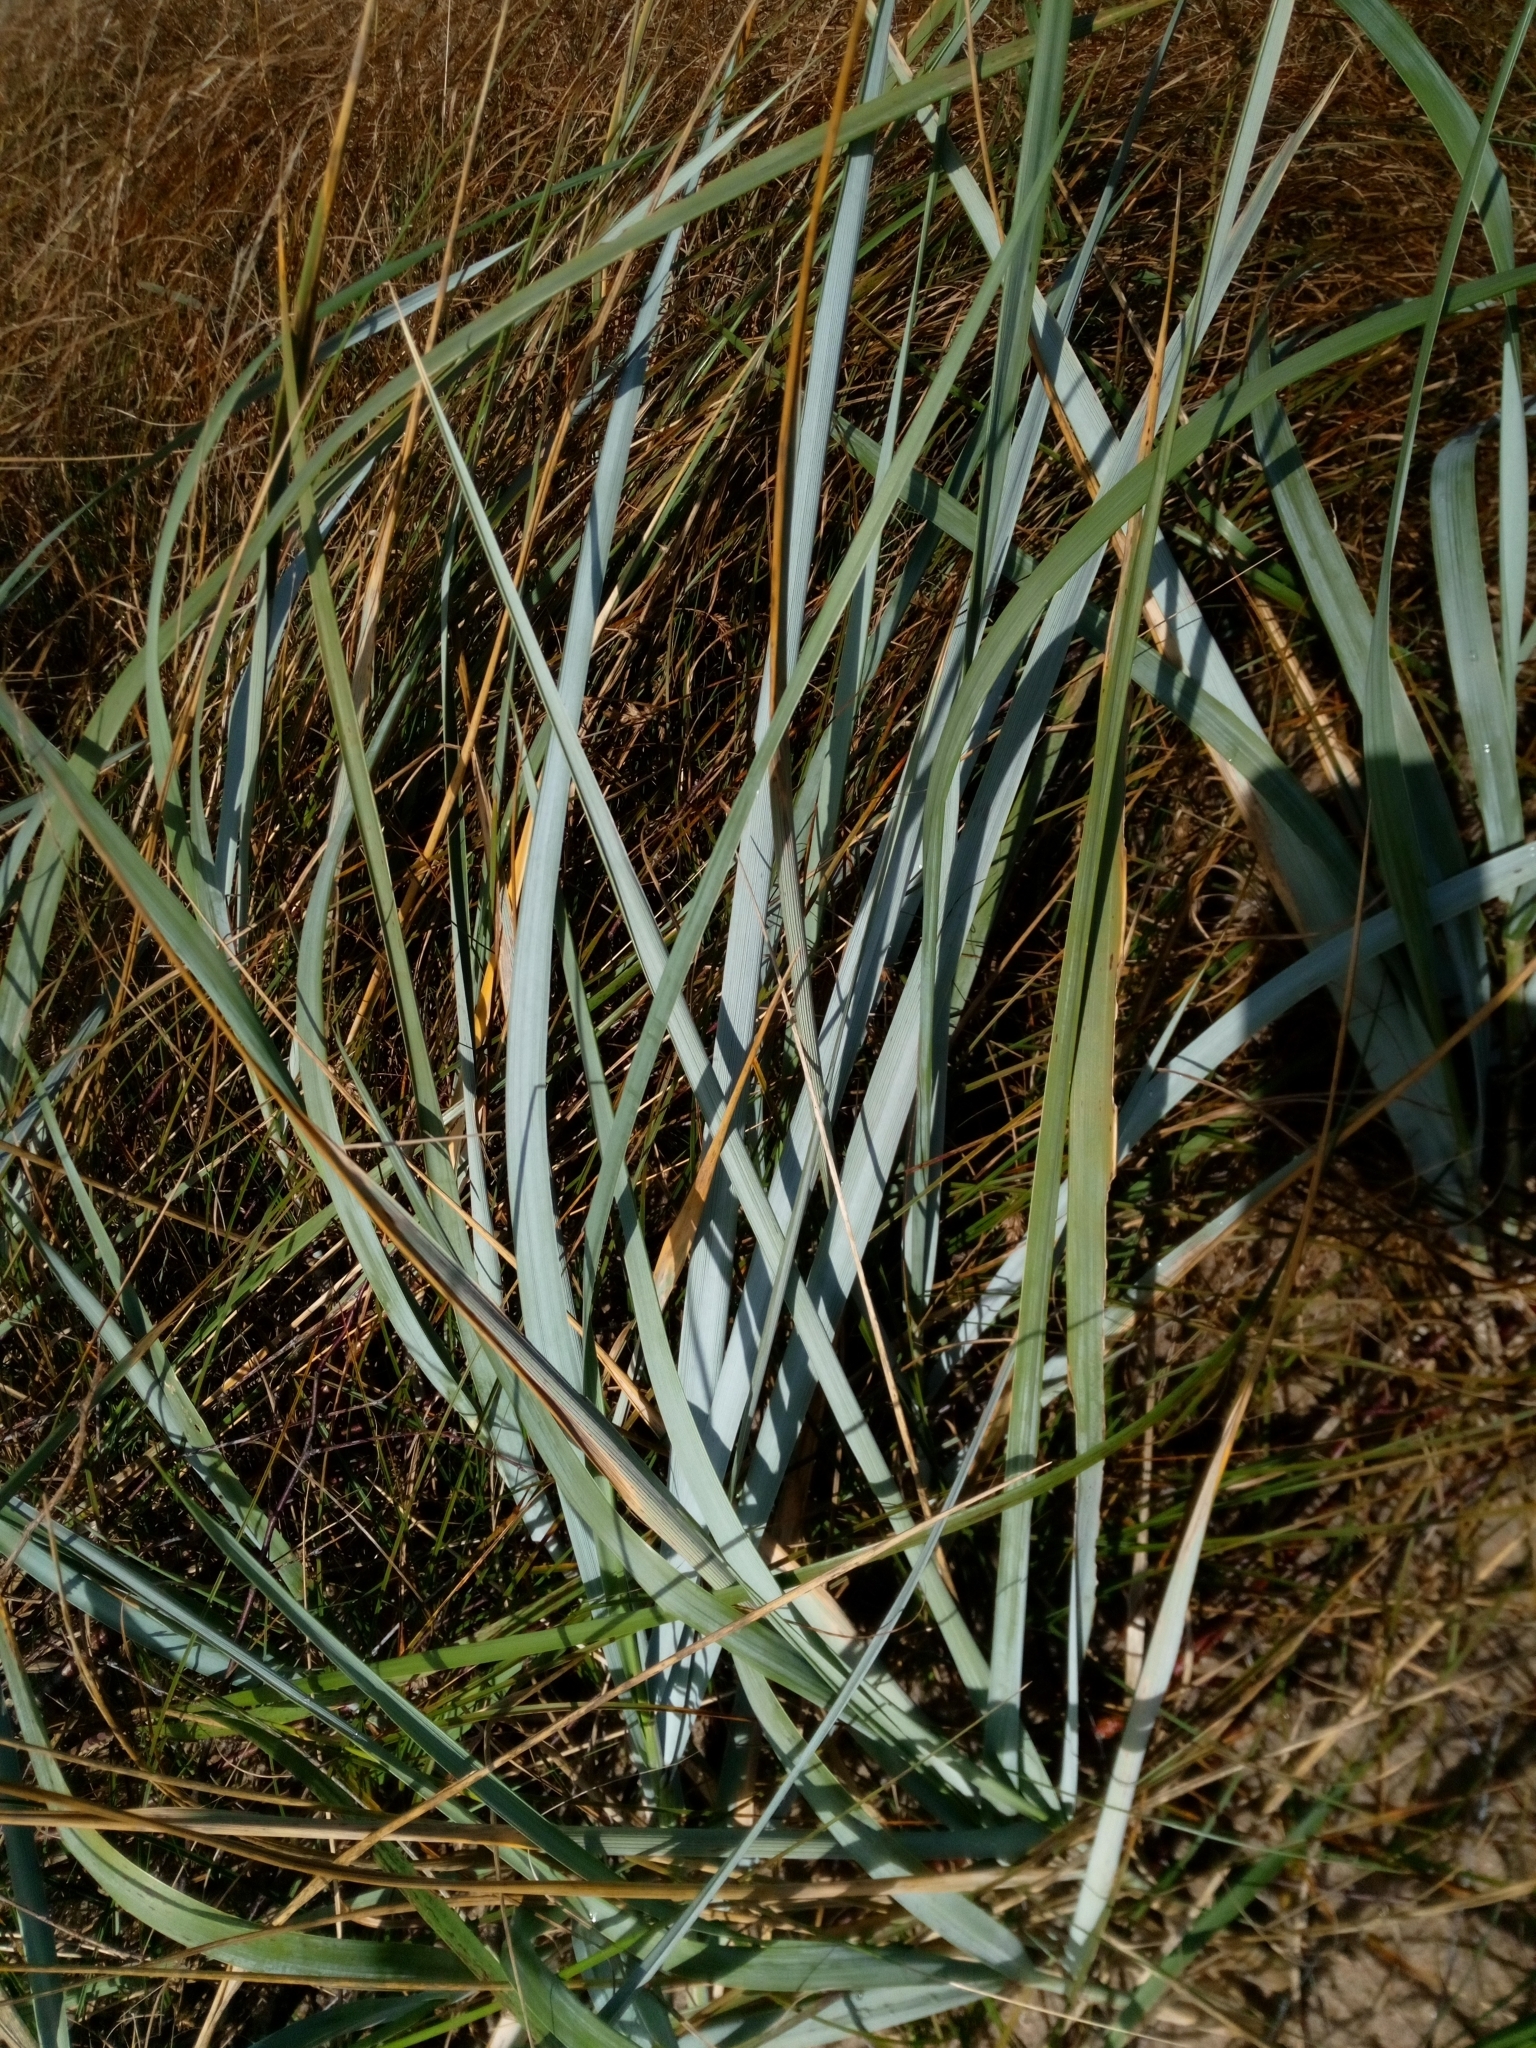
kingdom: Plantae
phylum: Tracheophyta
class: Liliopsida
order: Poales
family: Poaceae
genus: Leymus
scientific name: Leymus arenarius
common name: Lyme-grass
